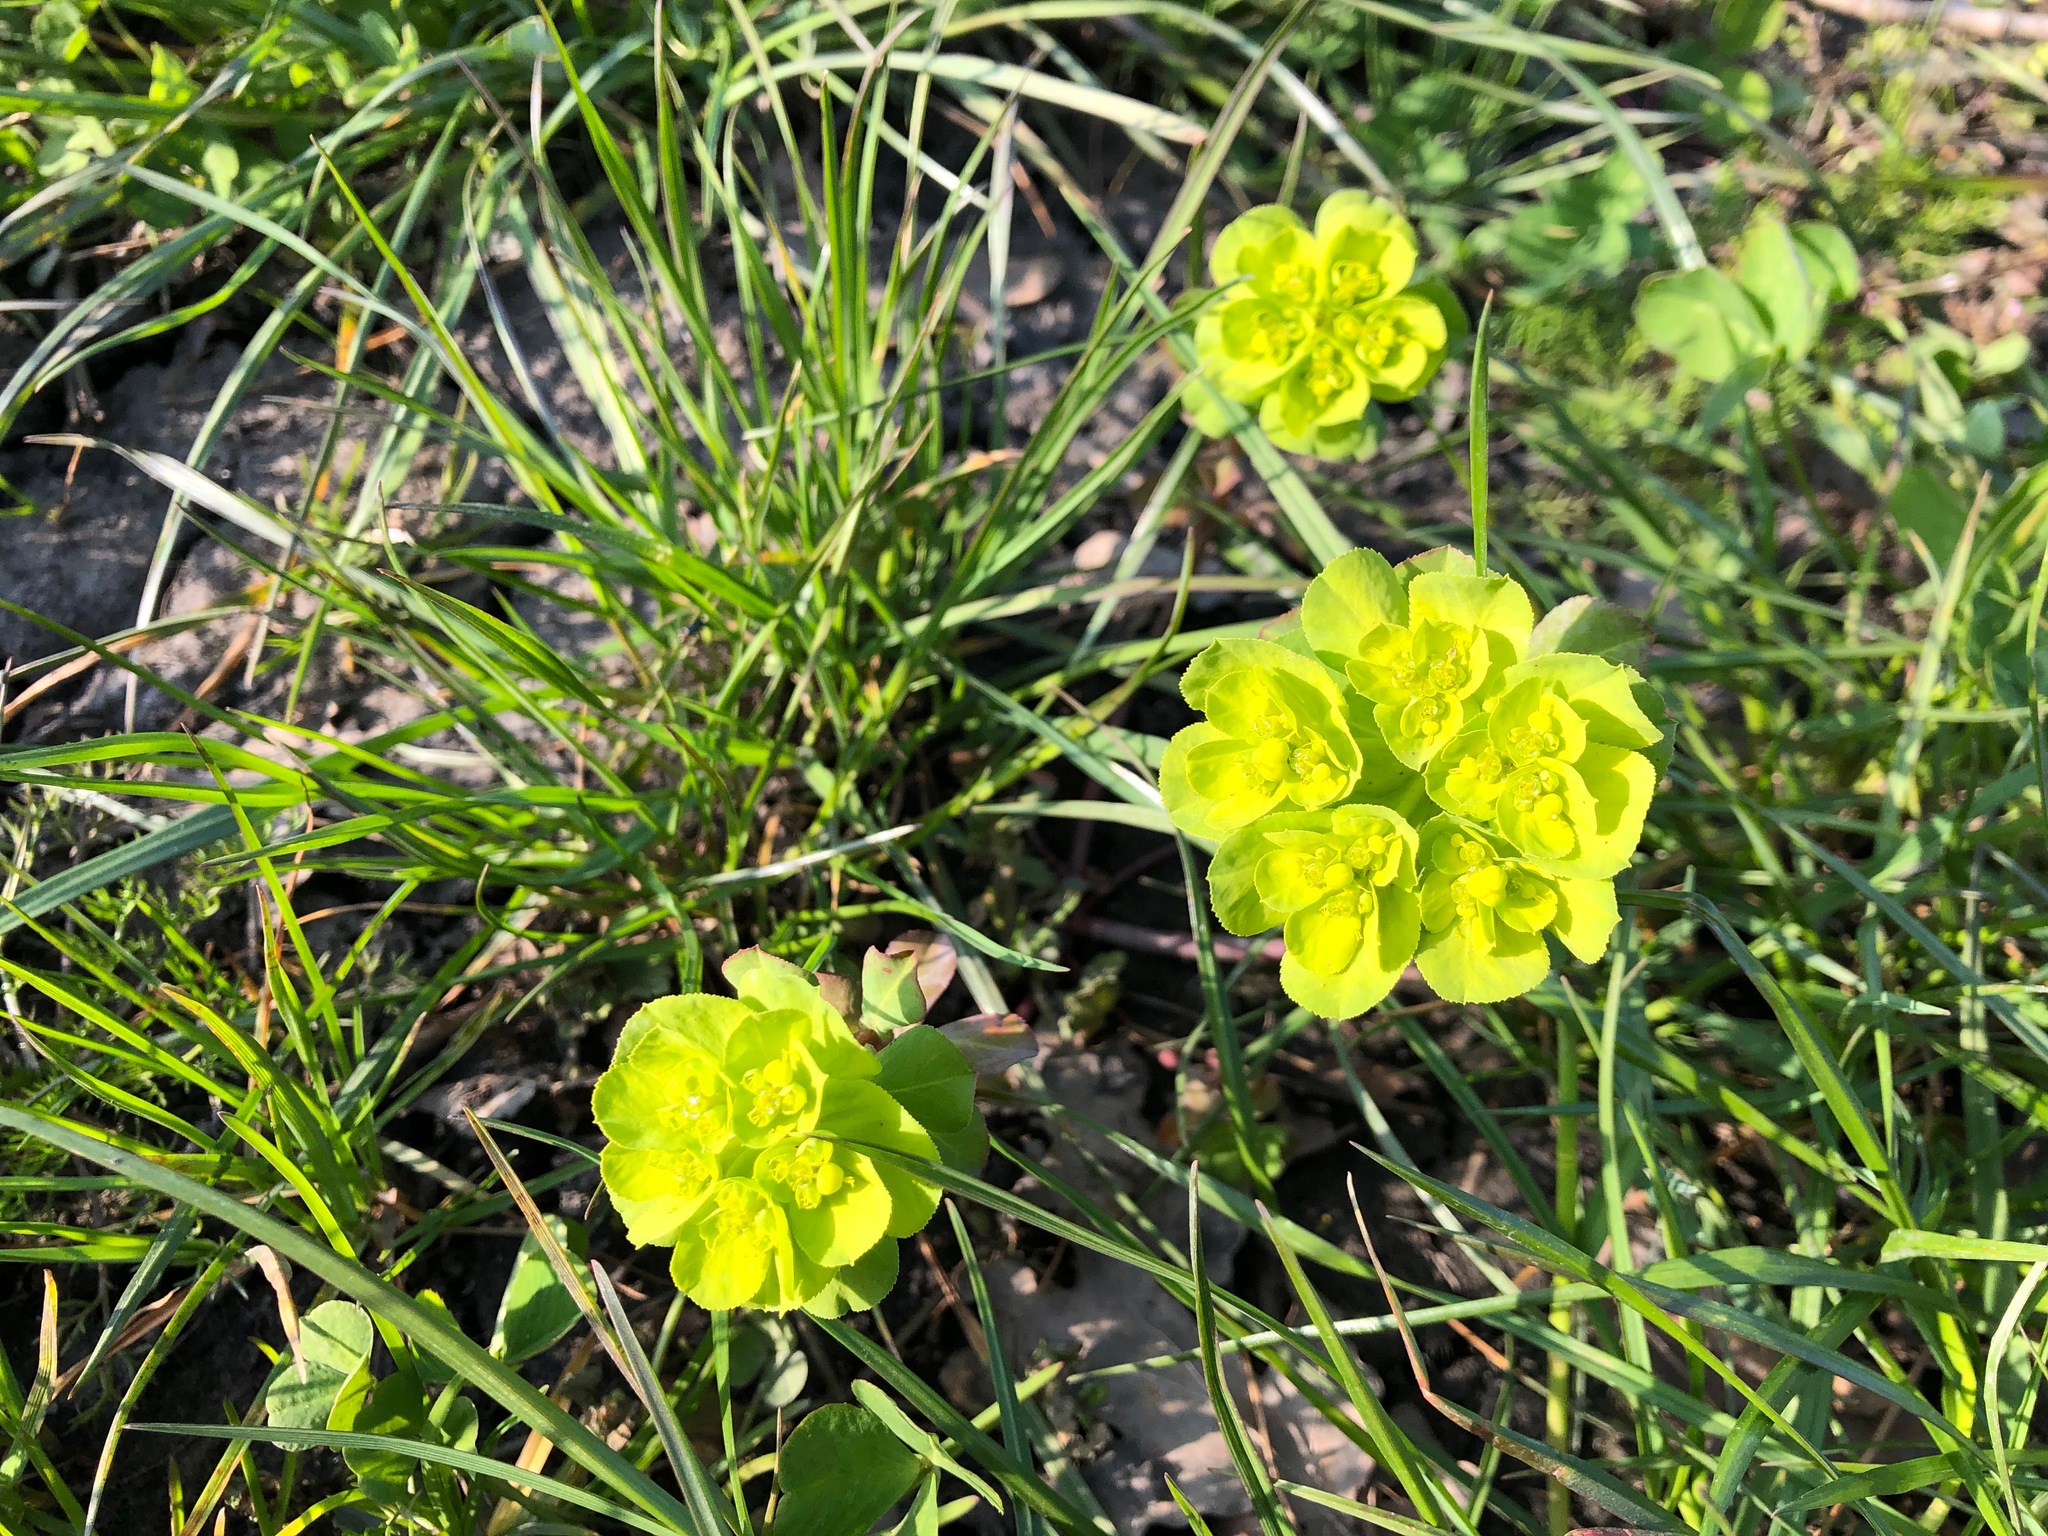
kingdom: Plantae
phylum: Tracheophyta
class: Magnoliopsida
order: Malpighiales
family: Euphorbiaceae
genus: Euphorbia
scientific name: Euphorbia helioscopia
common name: Sun spurge
